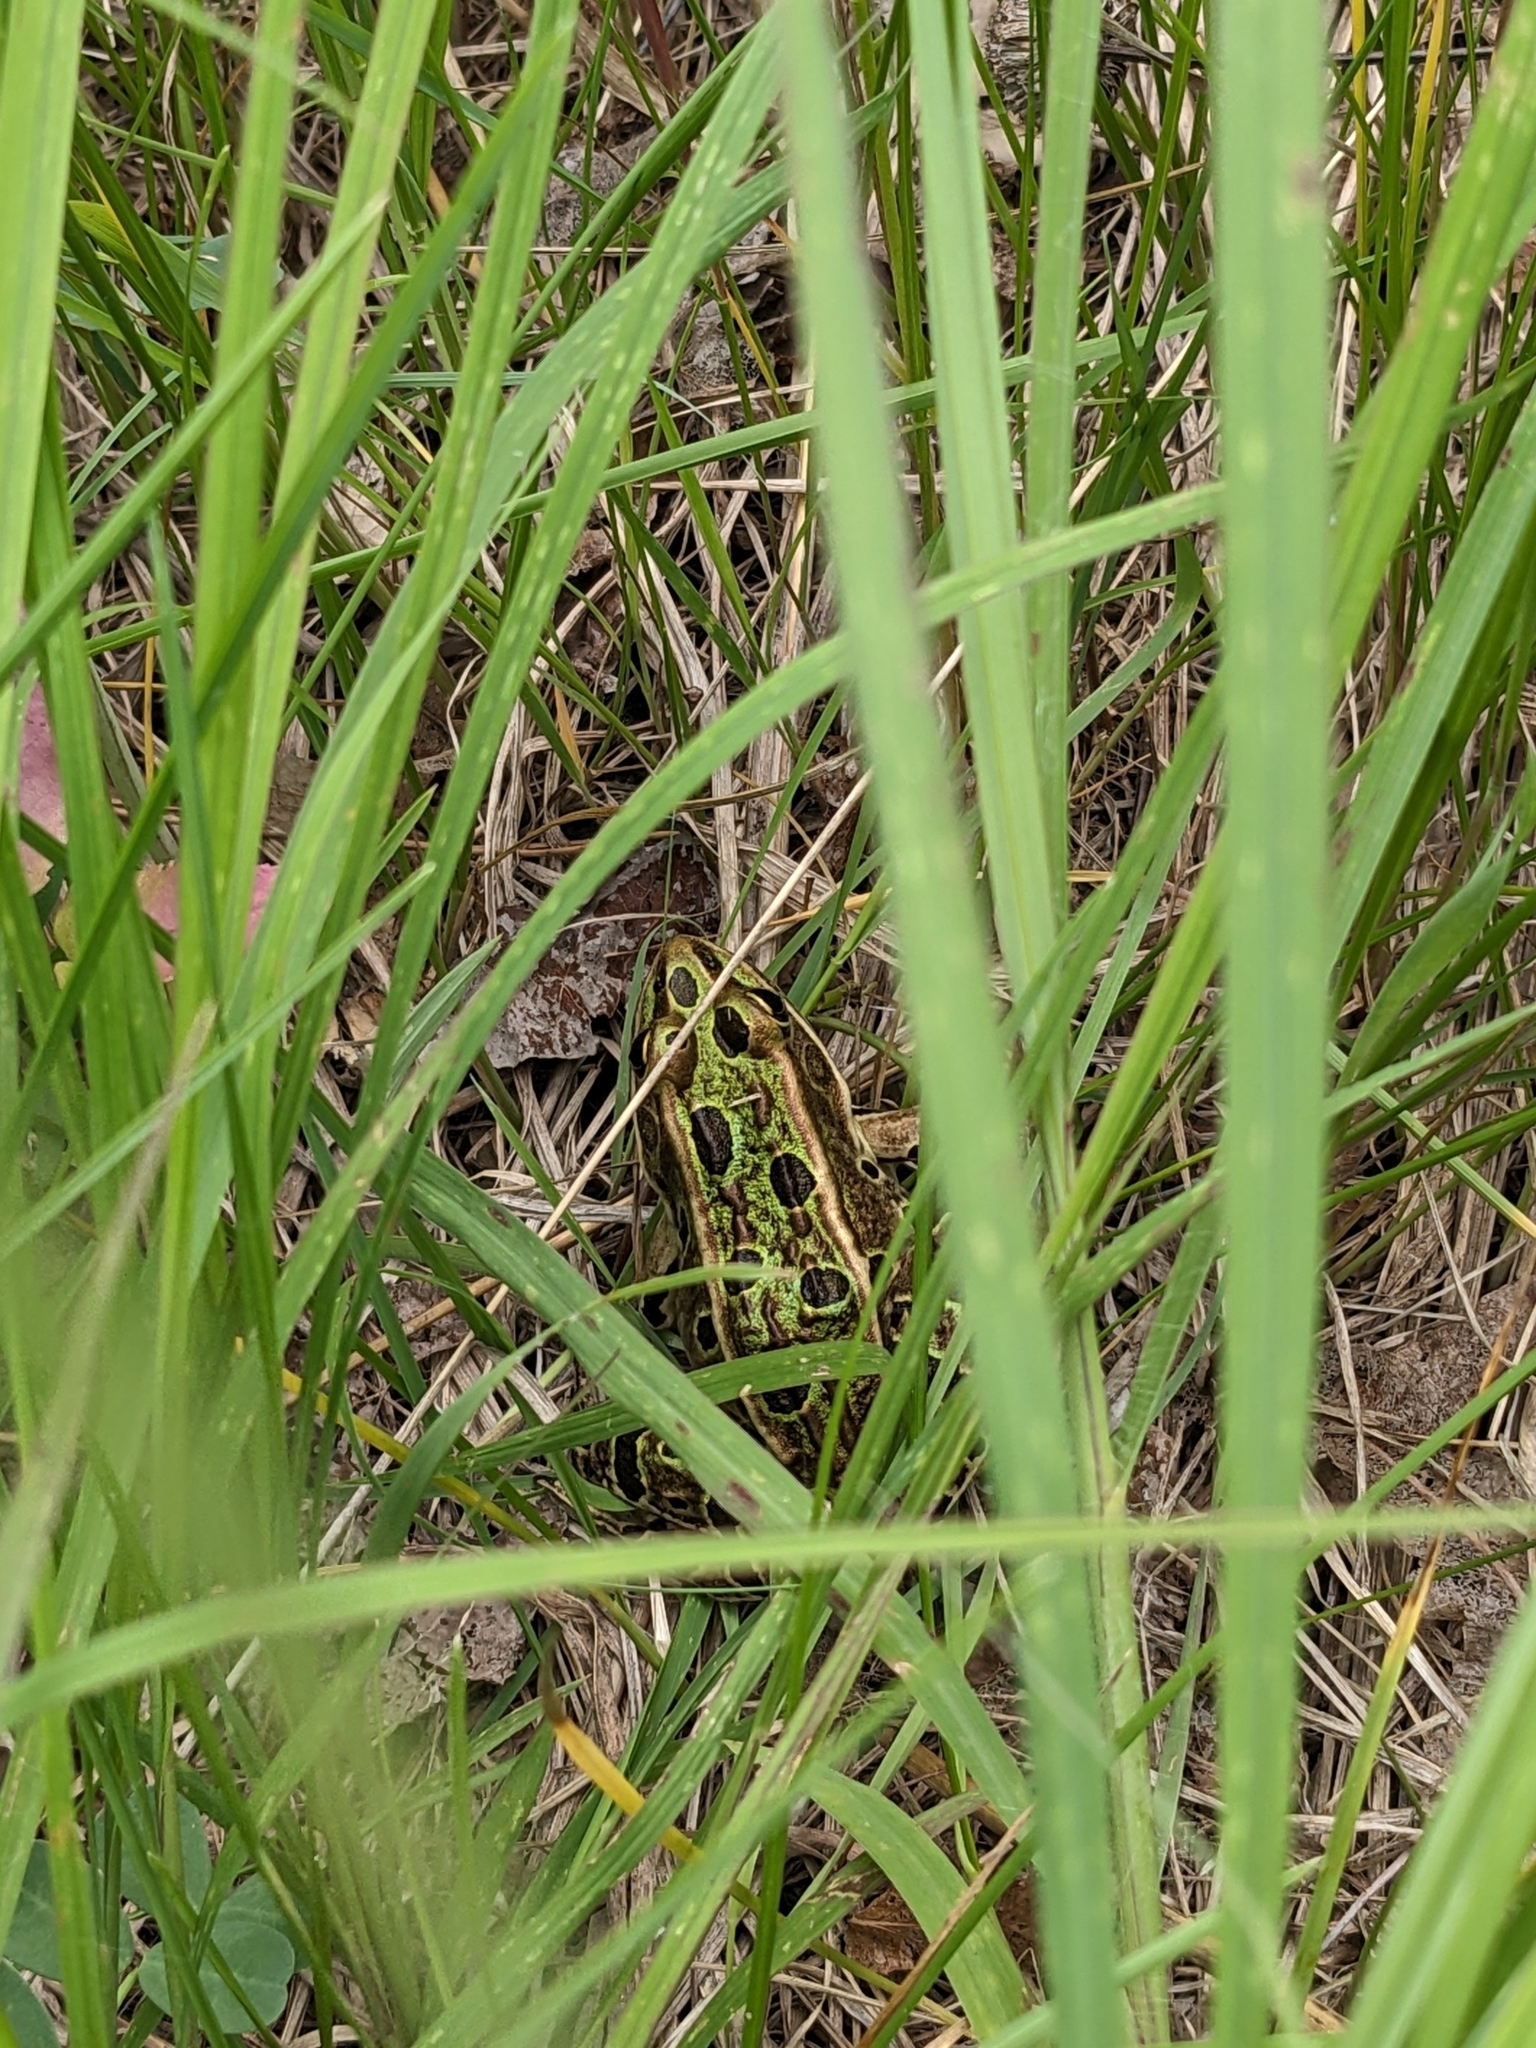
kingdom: Animalia
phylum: Chordata
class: Amphibia
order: Anura
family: Ranidae
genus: Lithobates
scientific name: Lithobates pipiens
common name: Northern leopard frog
